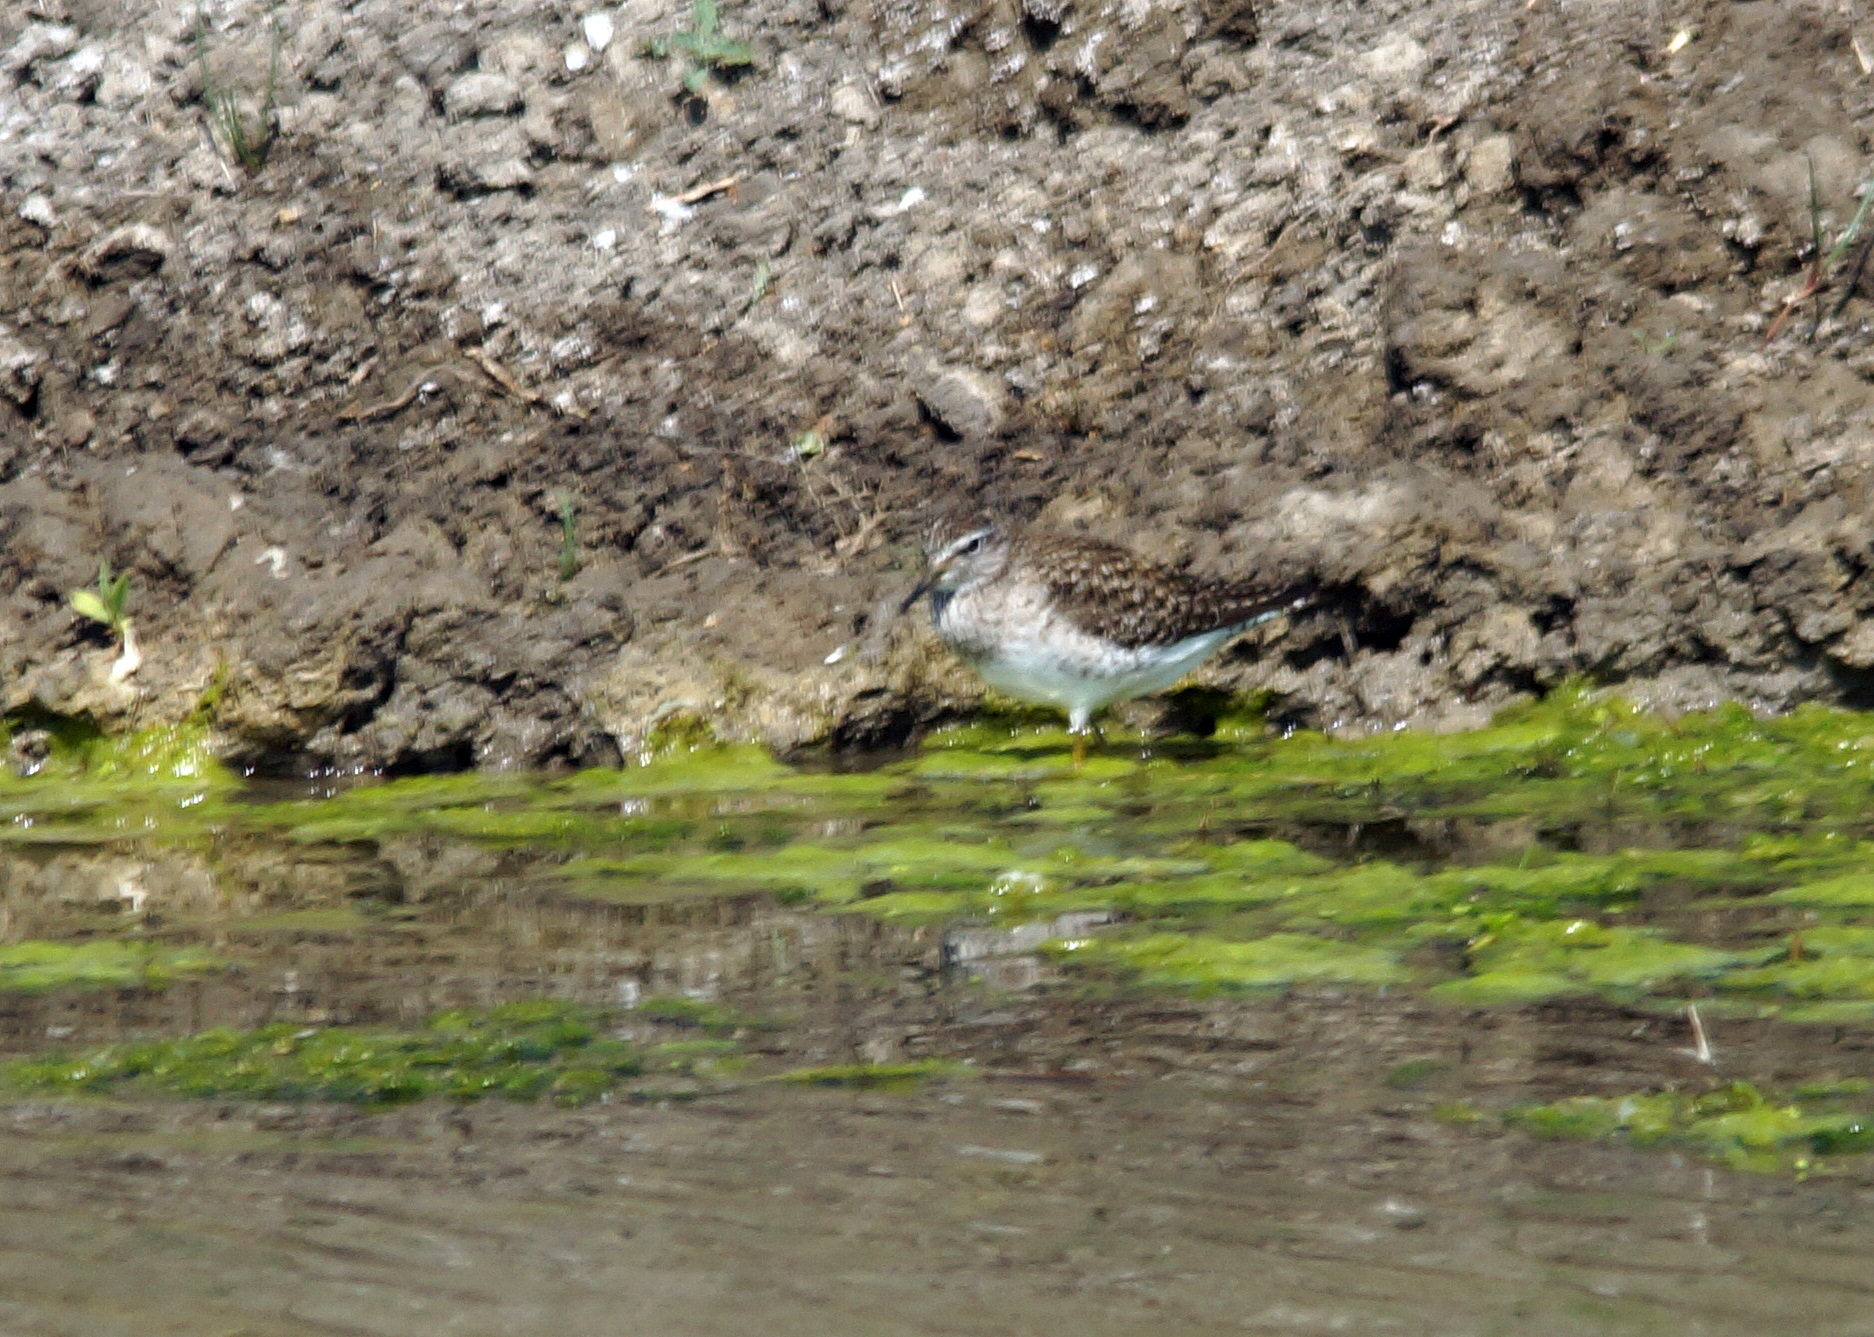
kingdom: Animalia
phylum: Chordata
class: Aves
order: Charadriiformes
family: Scolopacidae
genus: Tringa
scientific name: Tringa glareola
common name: Wood sandpiper
